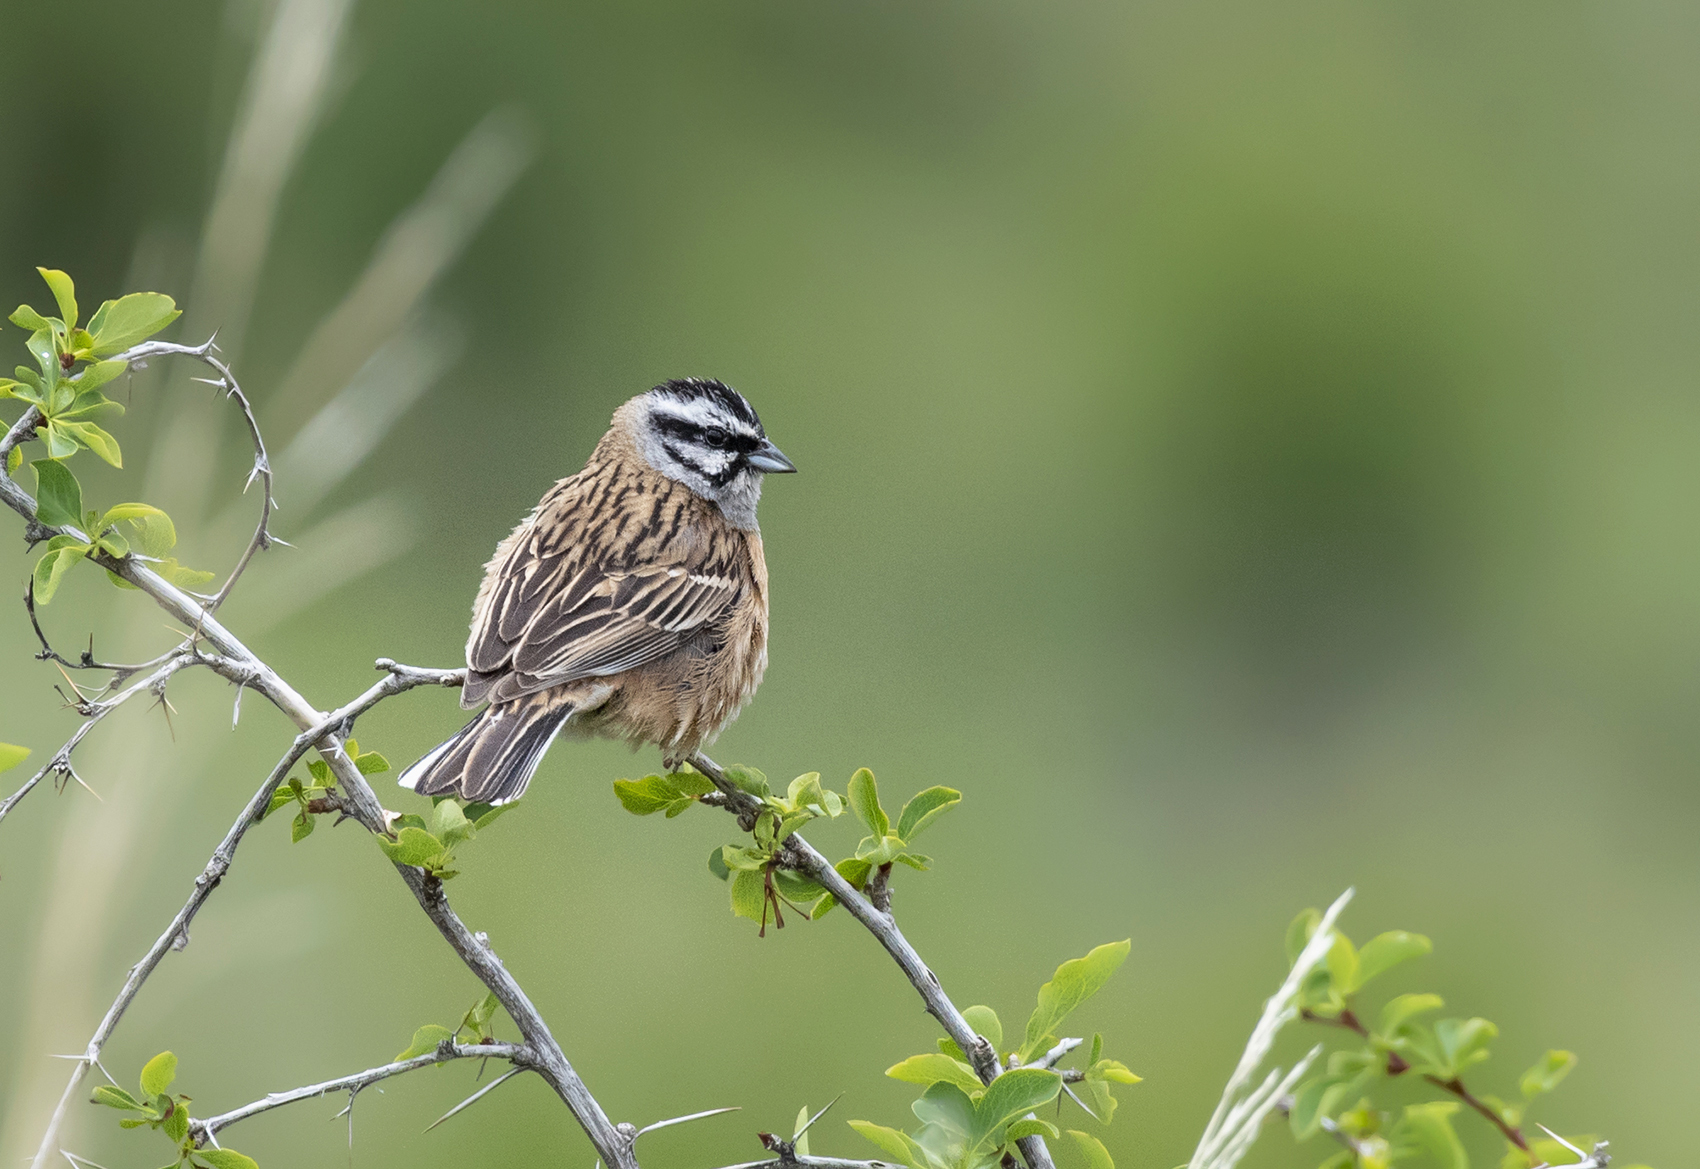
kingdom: Animalia
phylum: Chordata
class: Aves
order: Passeriformes
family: Emberizidae
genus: Emberiza
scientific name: Emberiza cia
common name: Rock bunting
